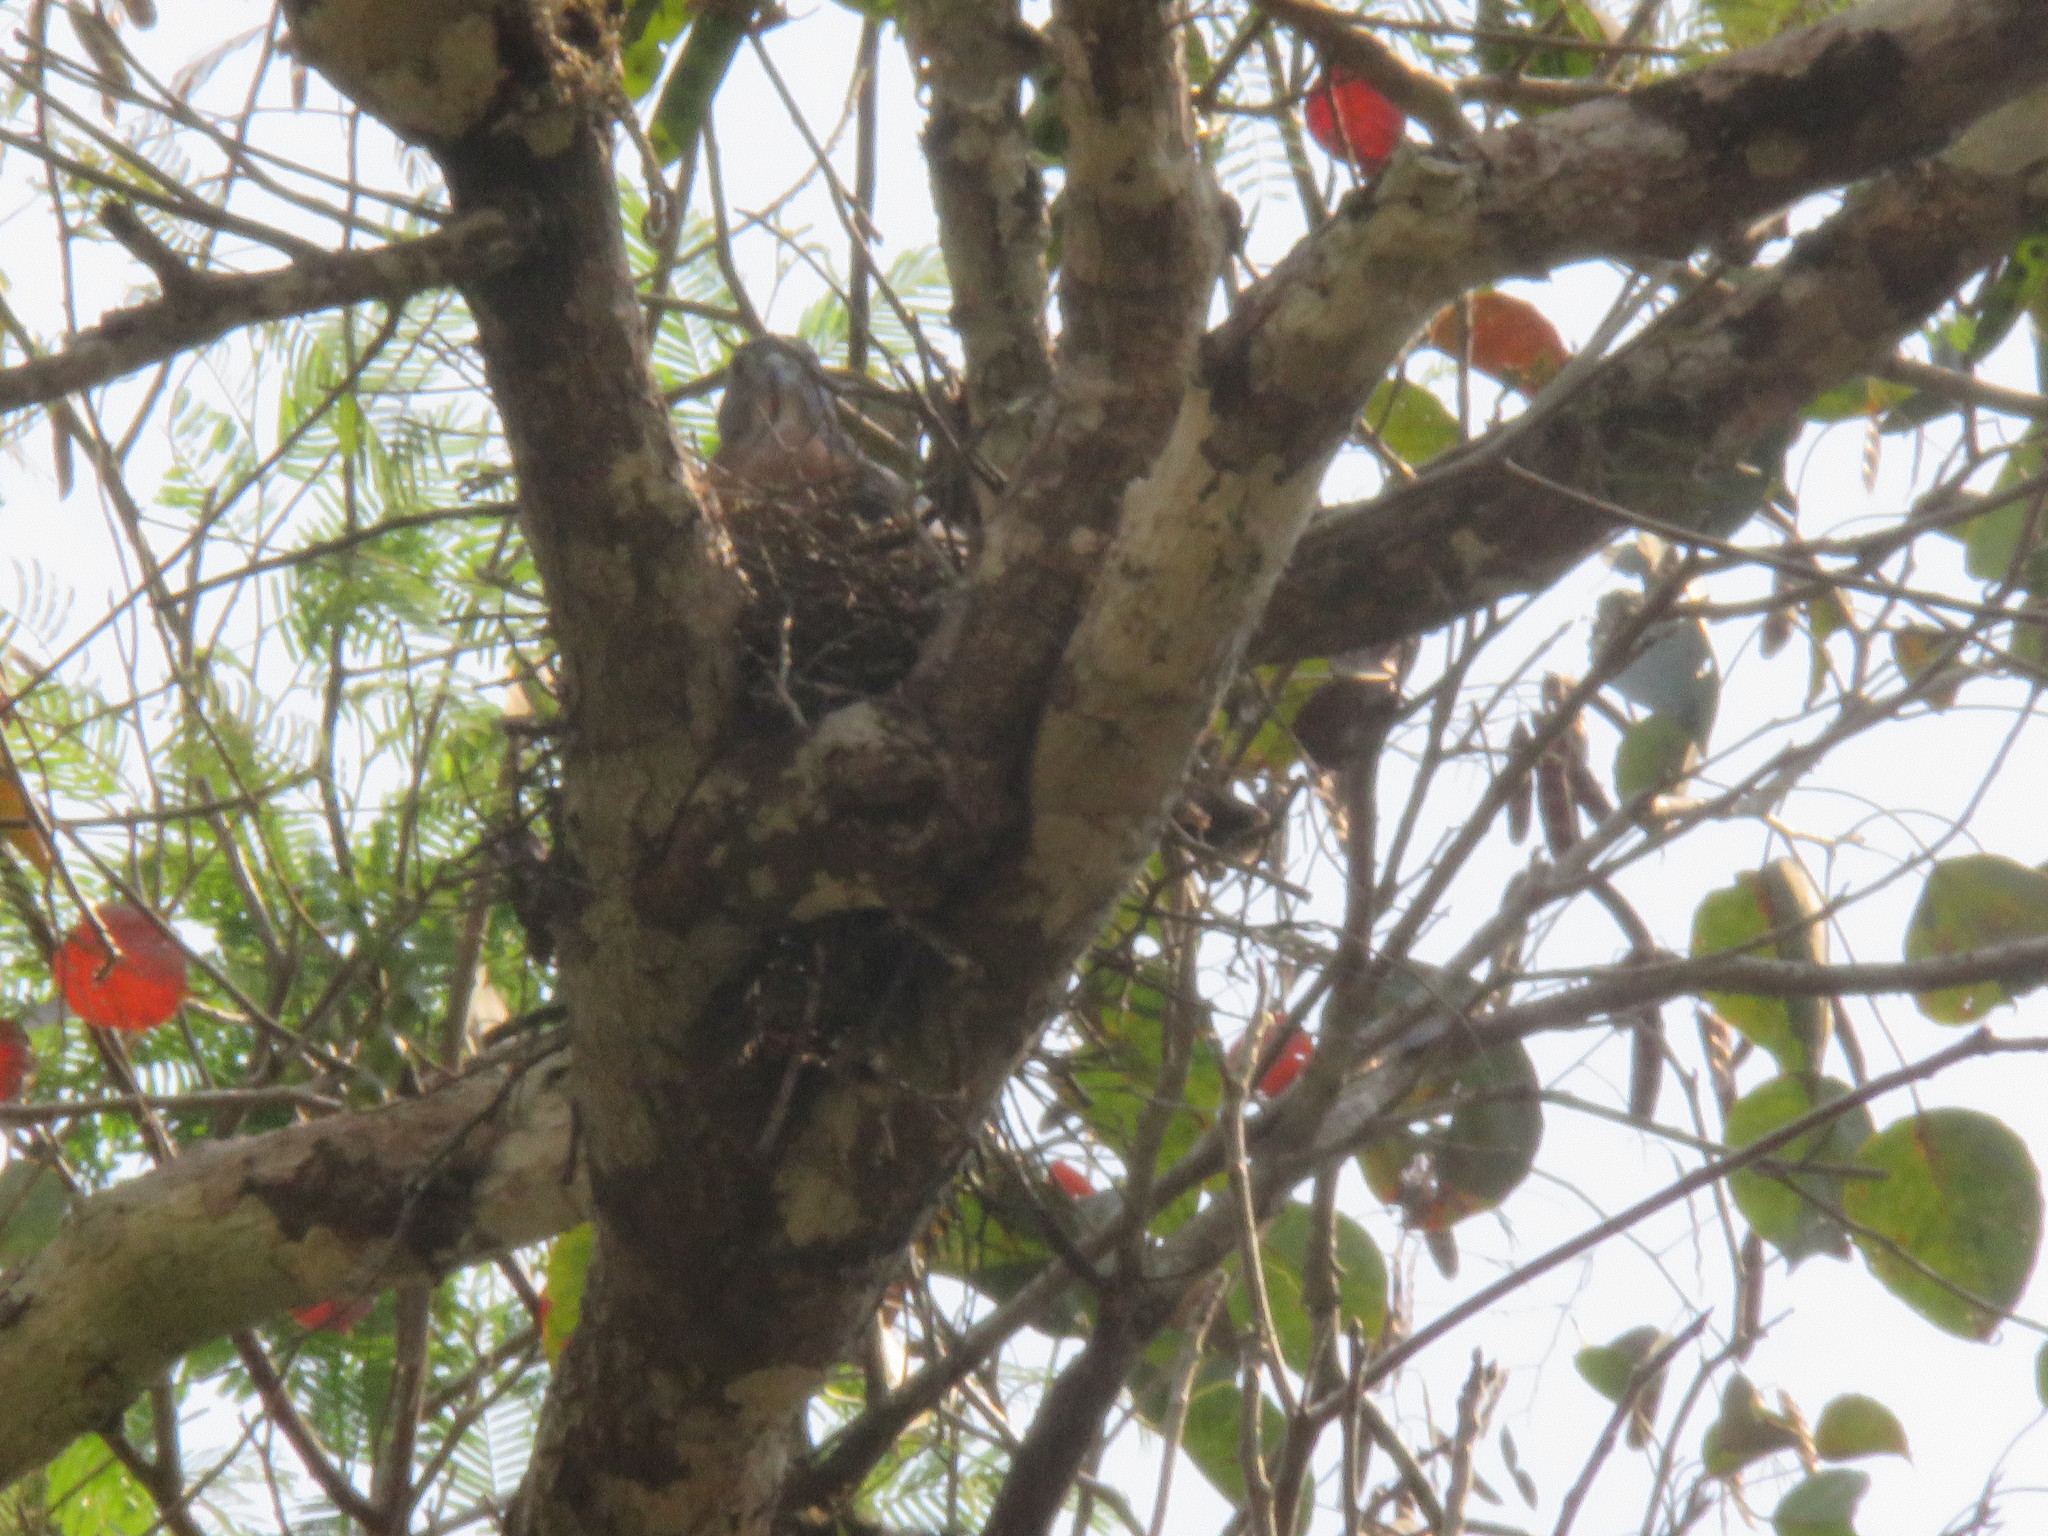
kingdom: Animalia
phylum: Chordata
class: Aves
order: Accipitriformes
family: Accipitridae
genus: Harpagus
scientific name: Harpagus bidentatus
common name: Double-toothed kite
